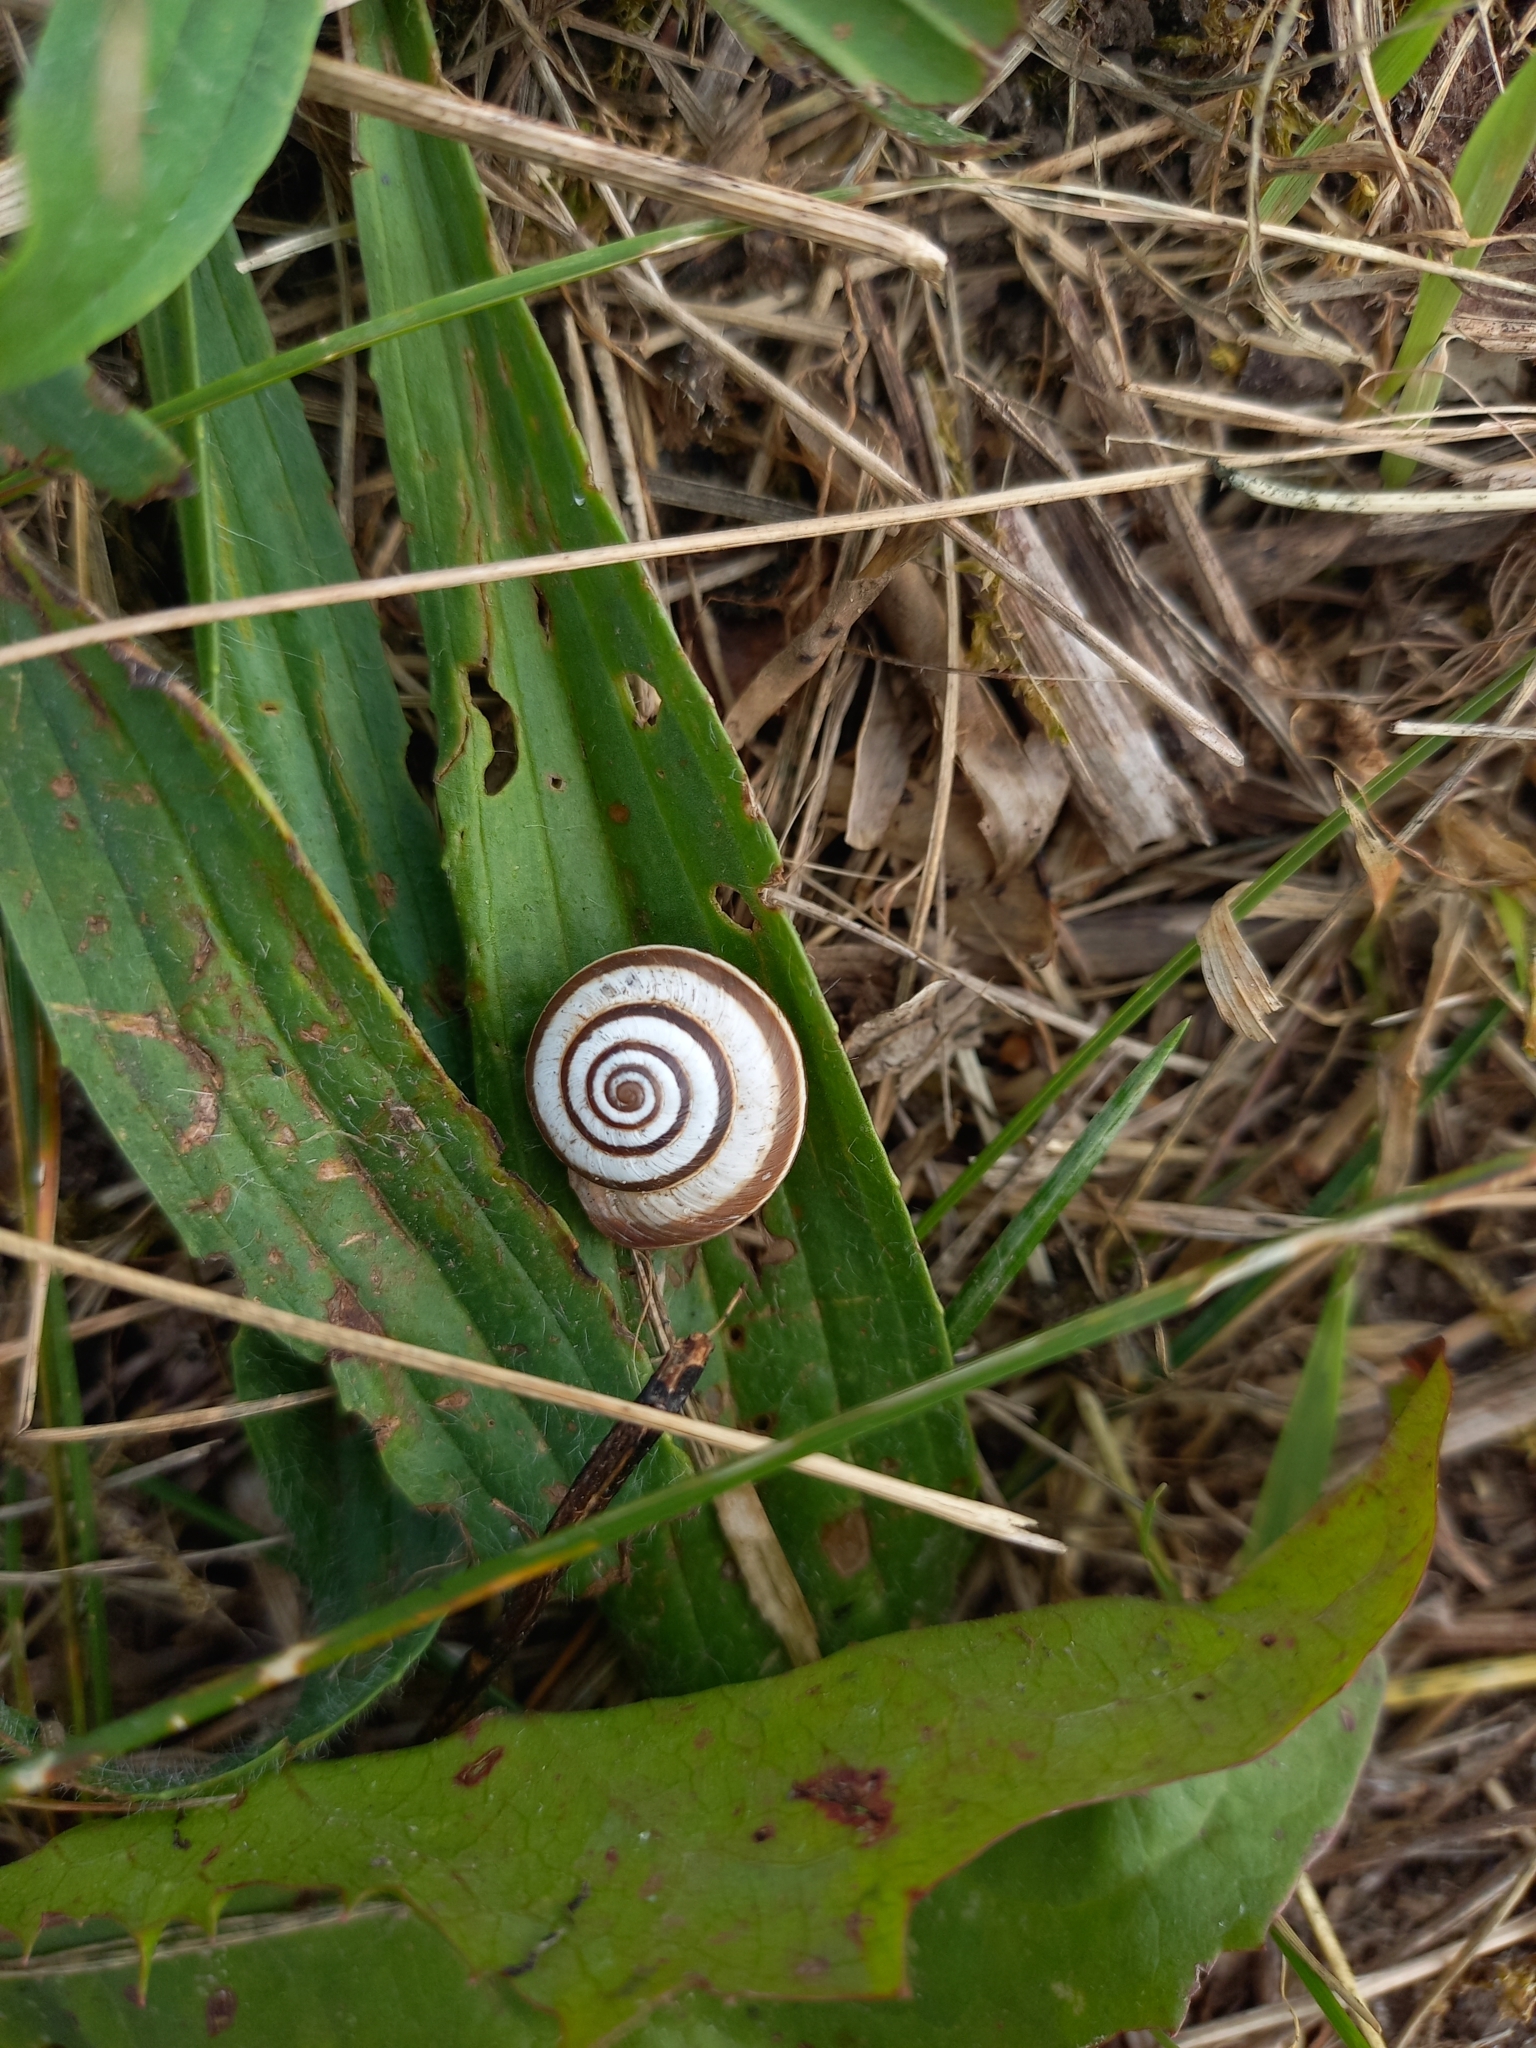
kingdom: Animalia
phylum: Mollusca
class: Gastropoda
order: Stylommatophora
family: Geomitridae
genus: Cernuella
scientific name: Cernuella virgata
